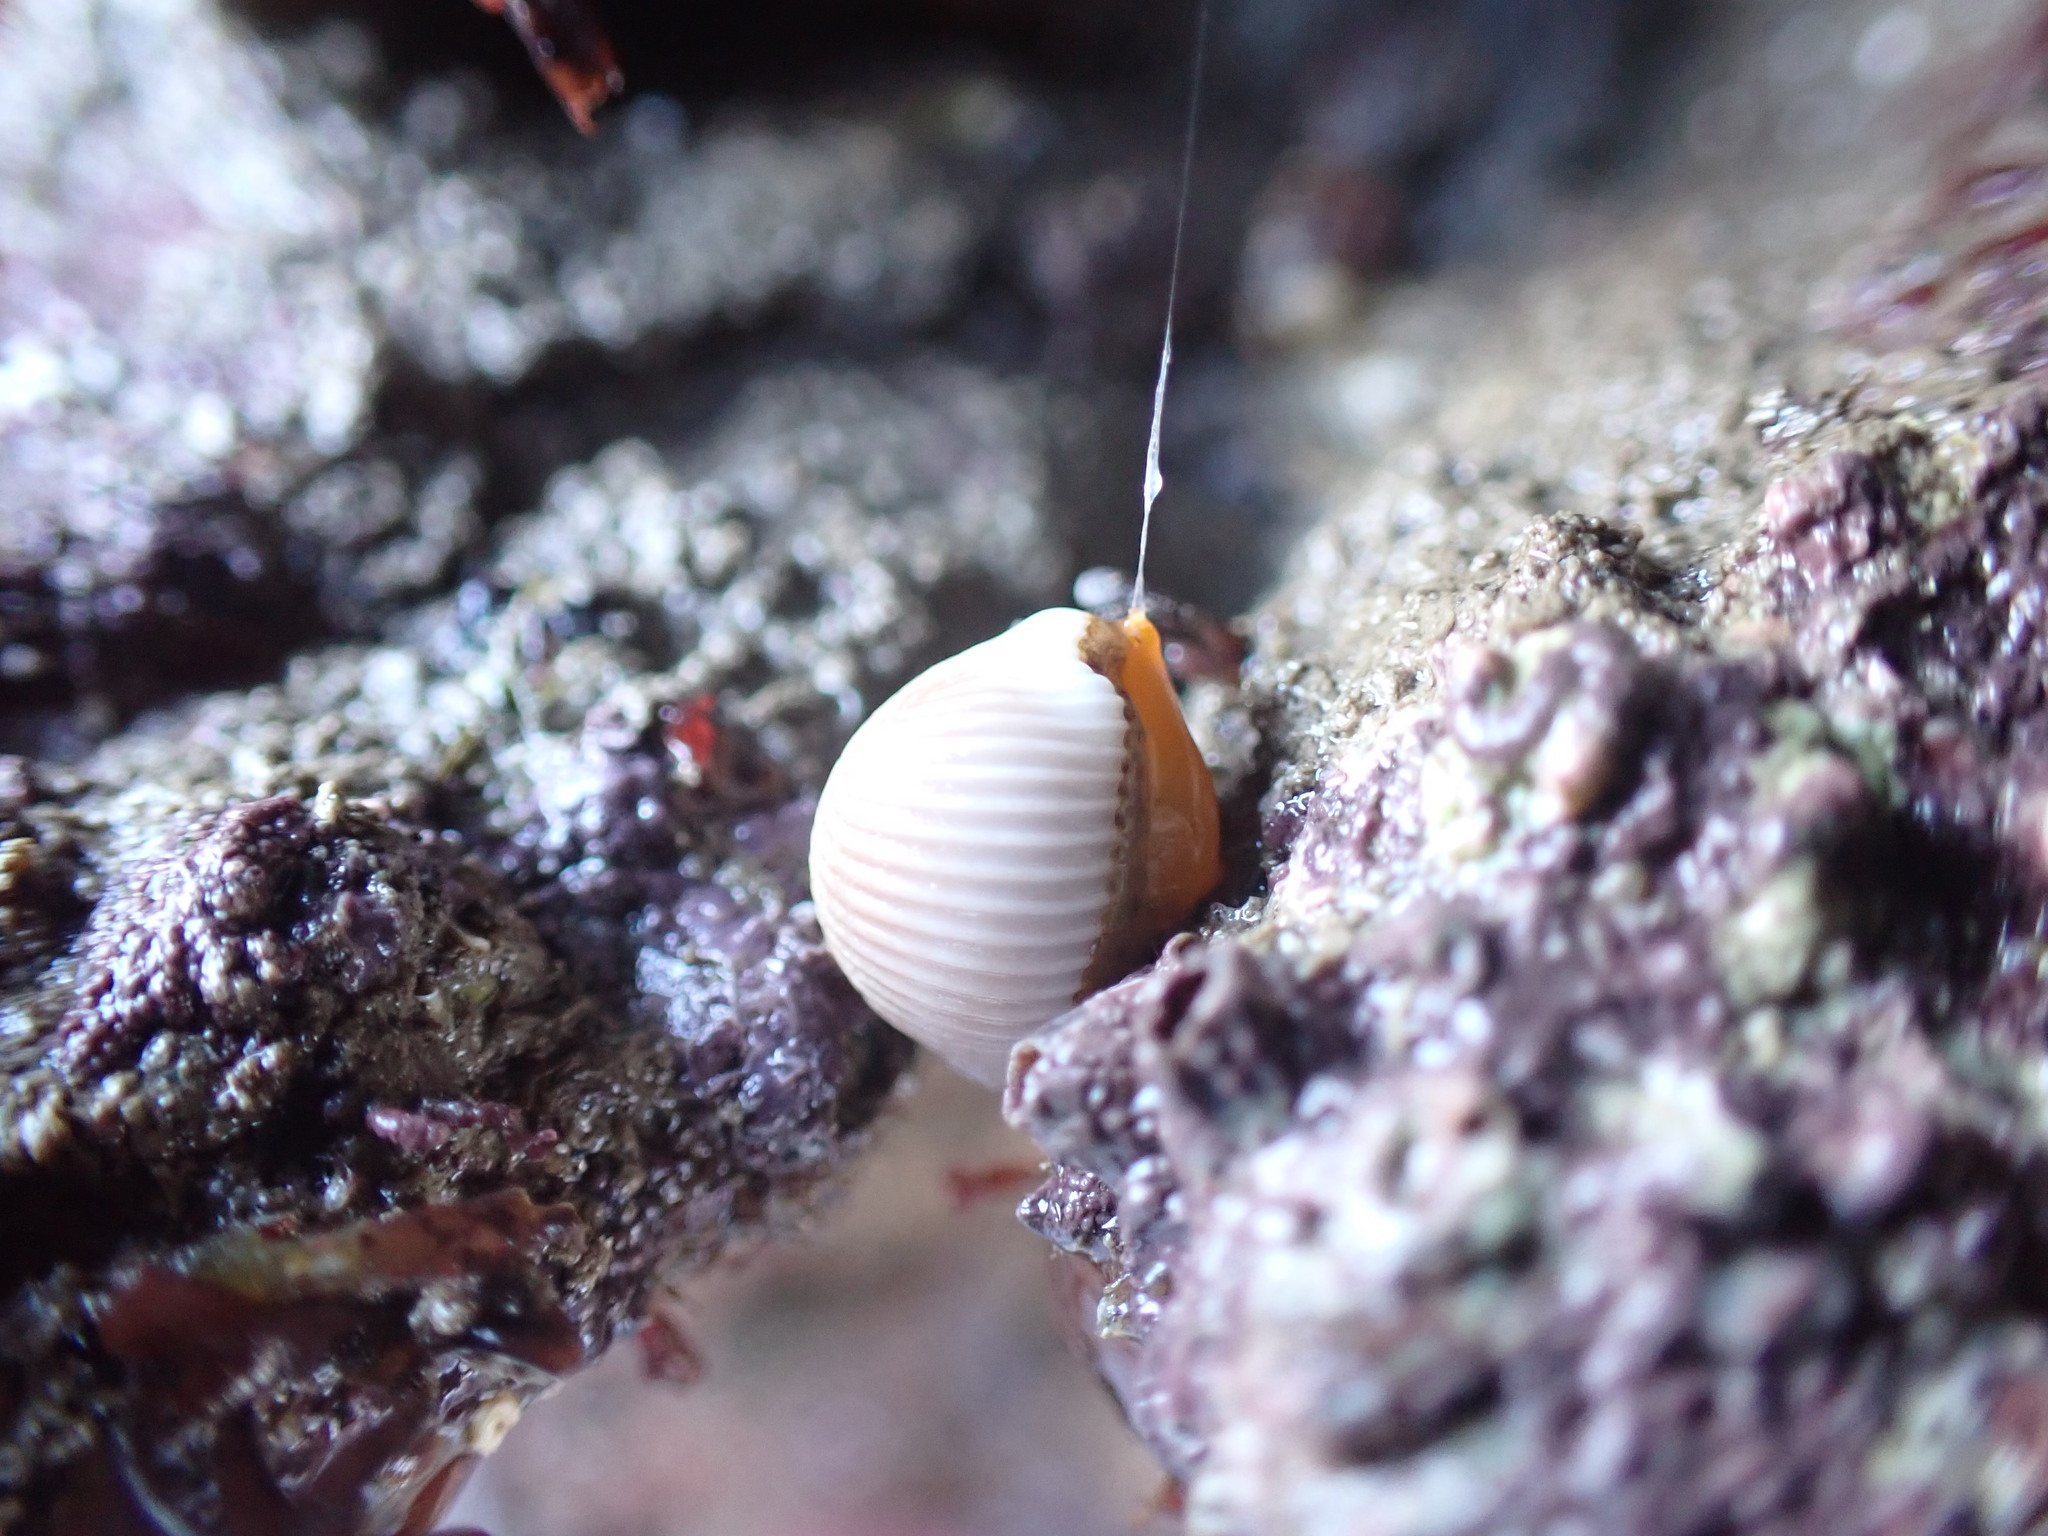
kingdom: Animalia
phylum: Mollusca
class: Gastropoda
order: Littorinimorpha
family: Triviidae
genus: Trivia
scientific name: Trivia arctica
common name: Arctic cowrie
